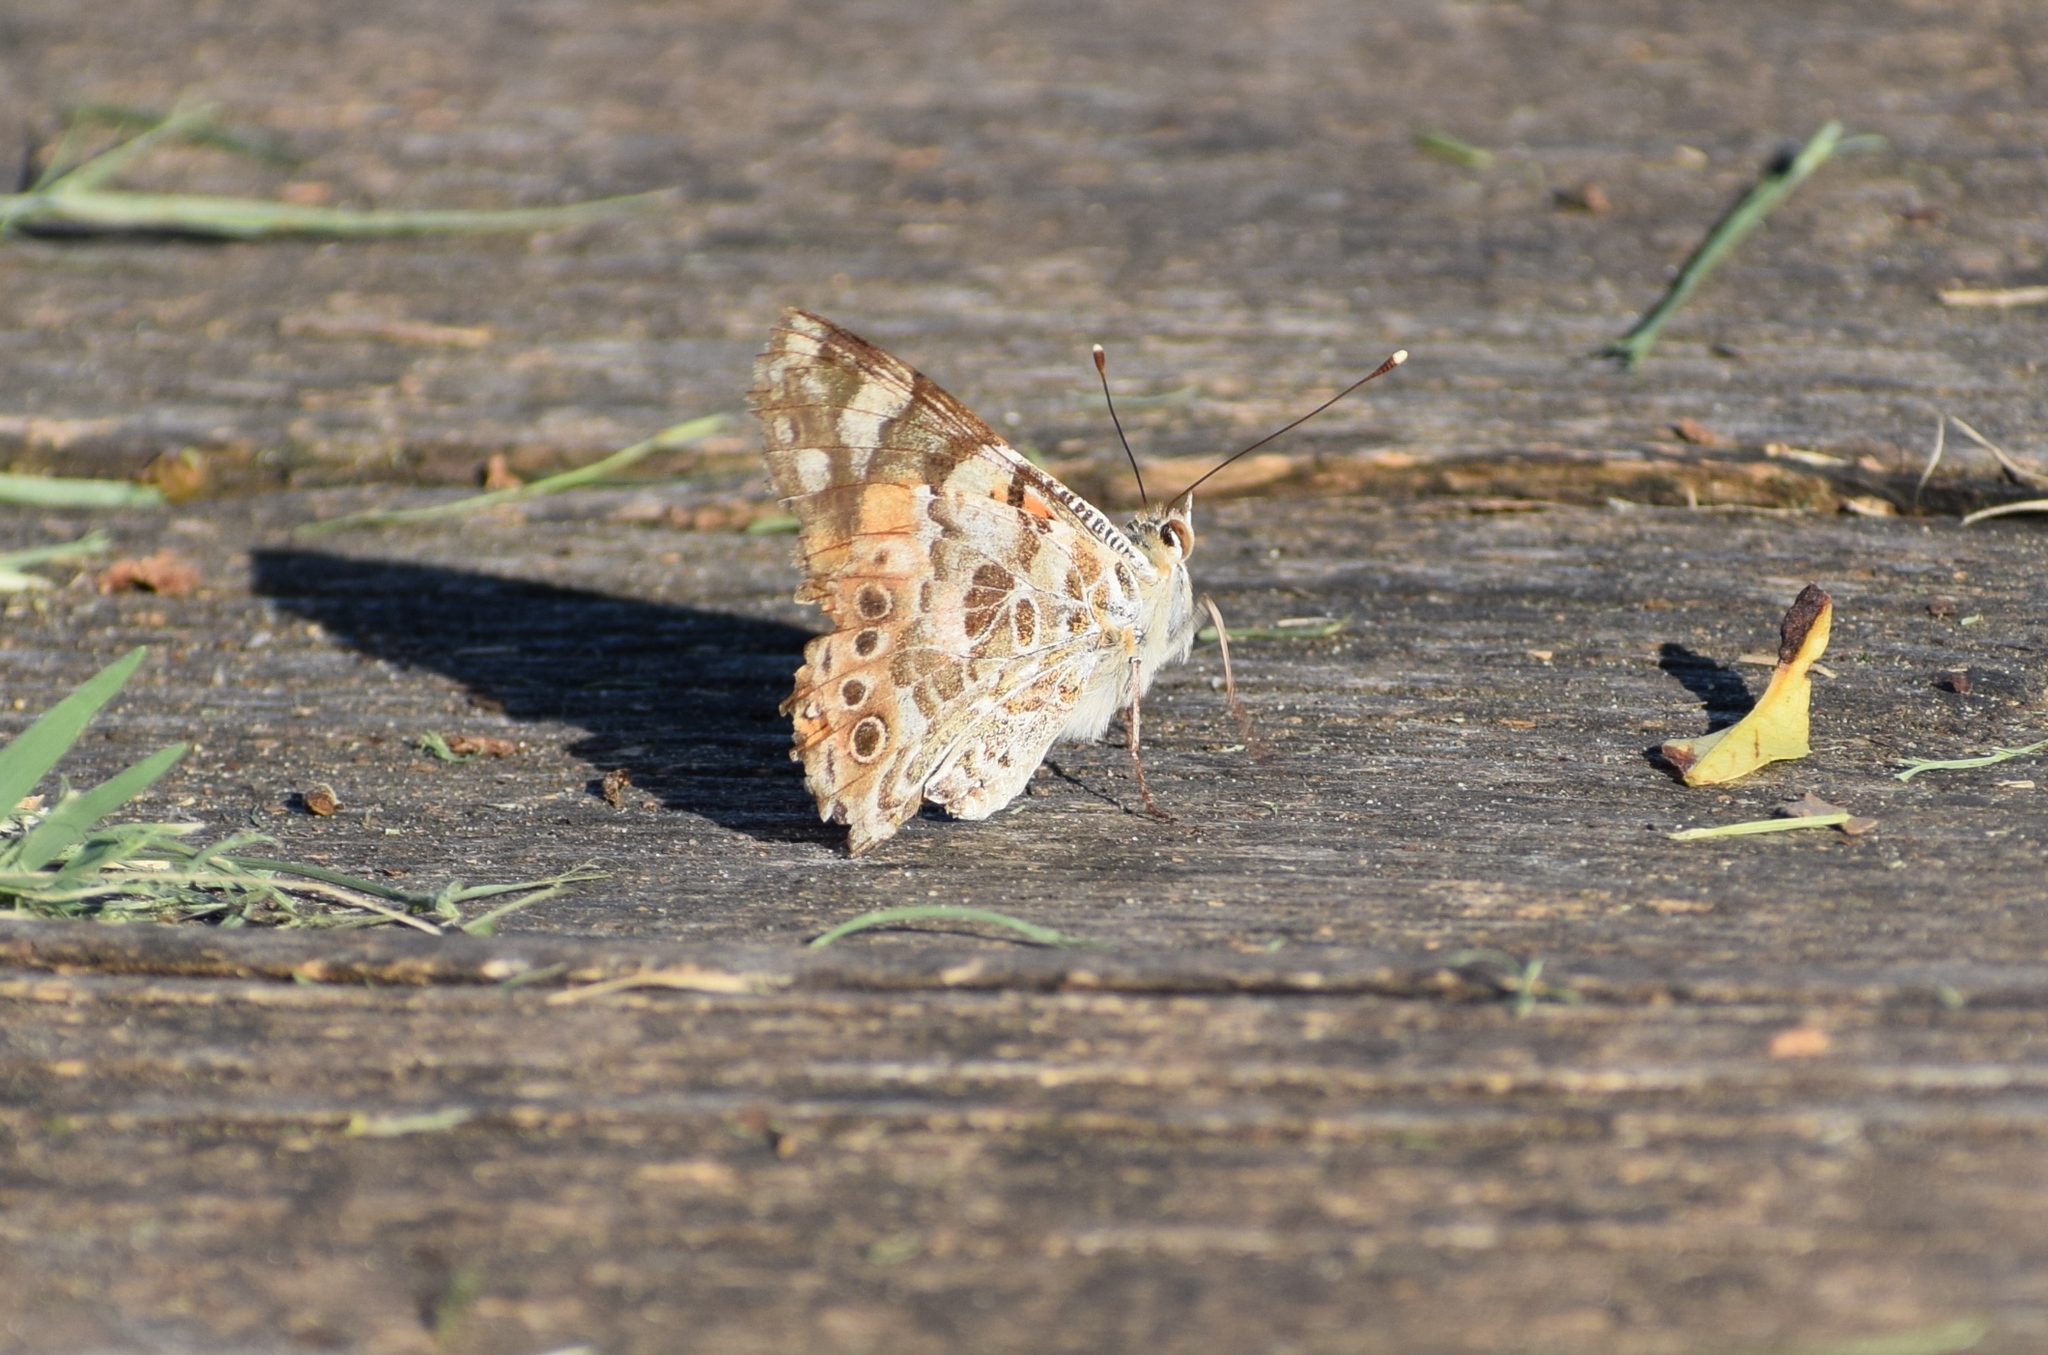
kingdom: Animalia
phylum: Arthropoda
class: Insecta
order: Lepidoptera
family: Nymphalidae
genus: Vanessa
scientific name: Vanessa cardui
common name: Painted lady
